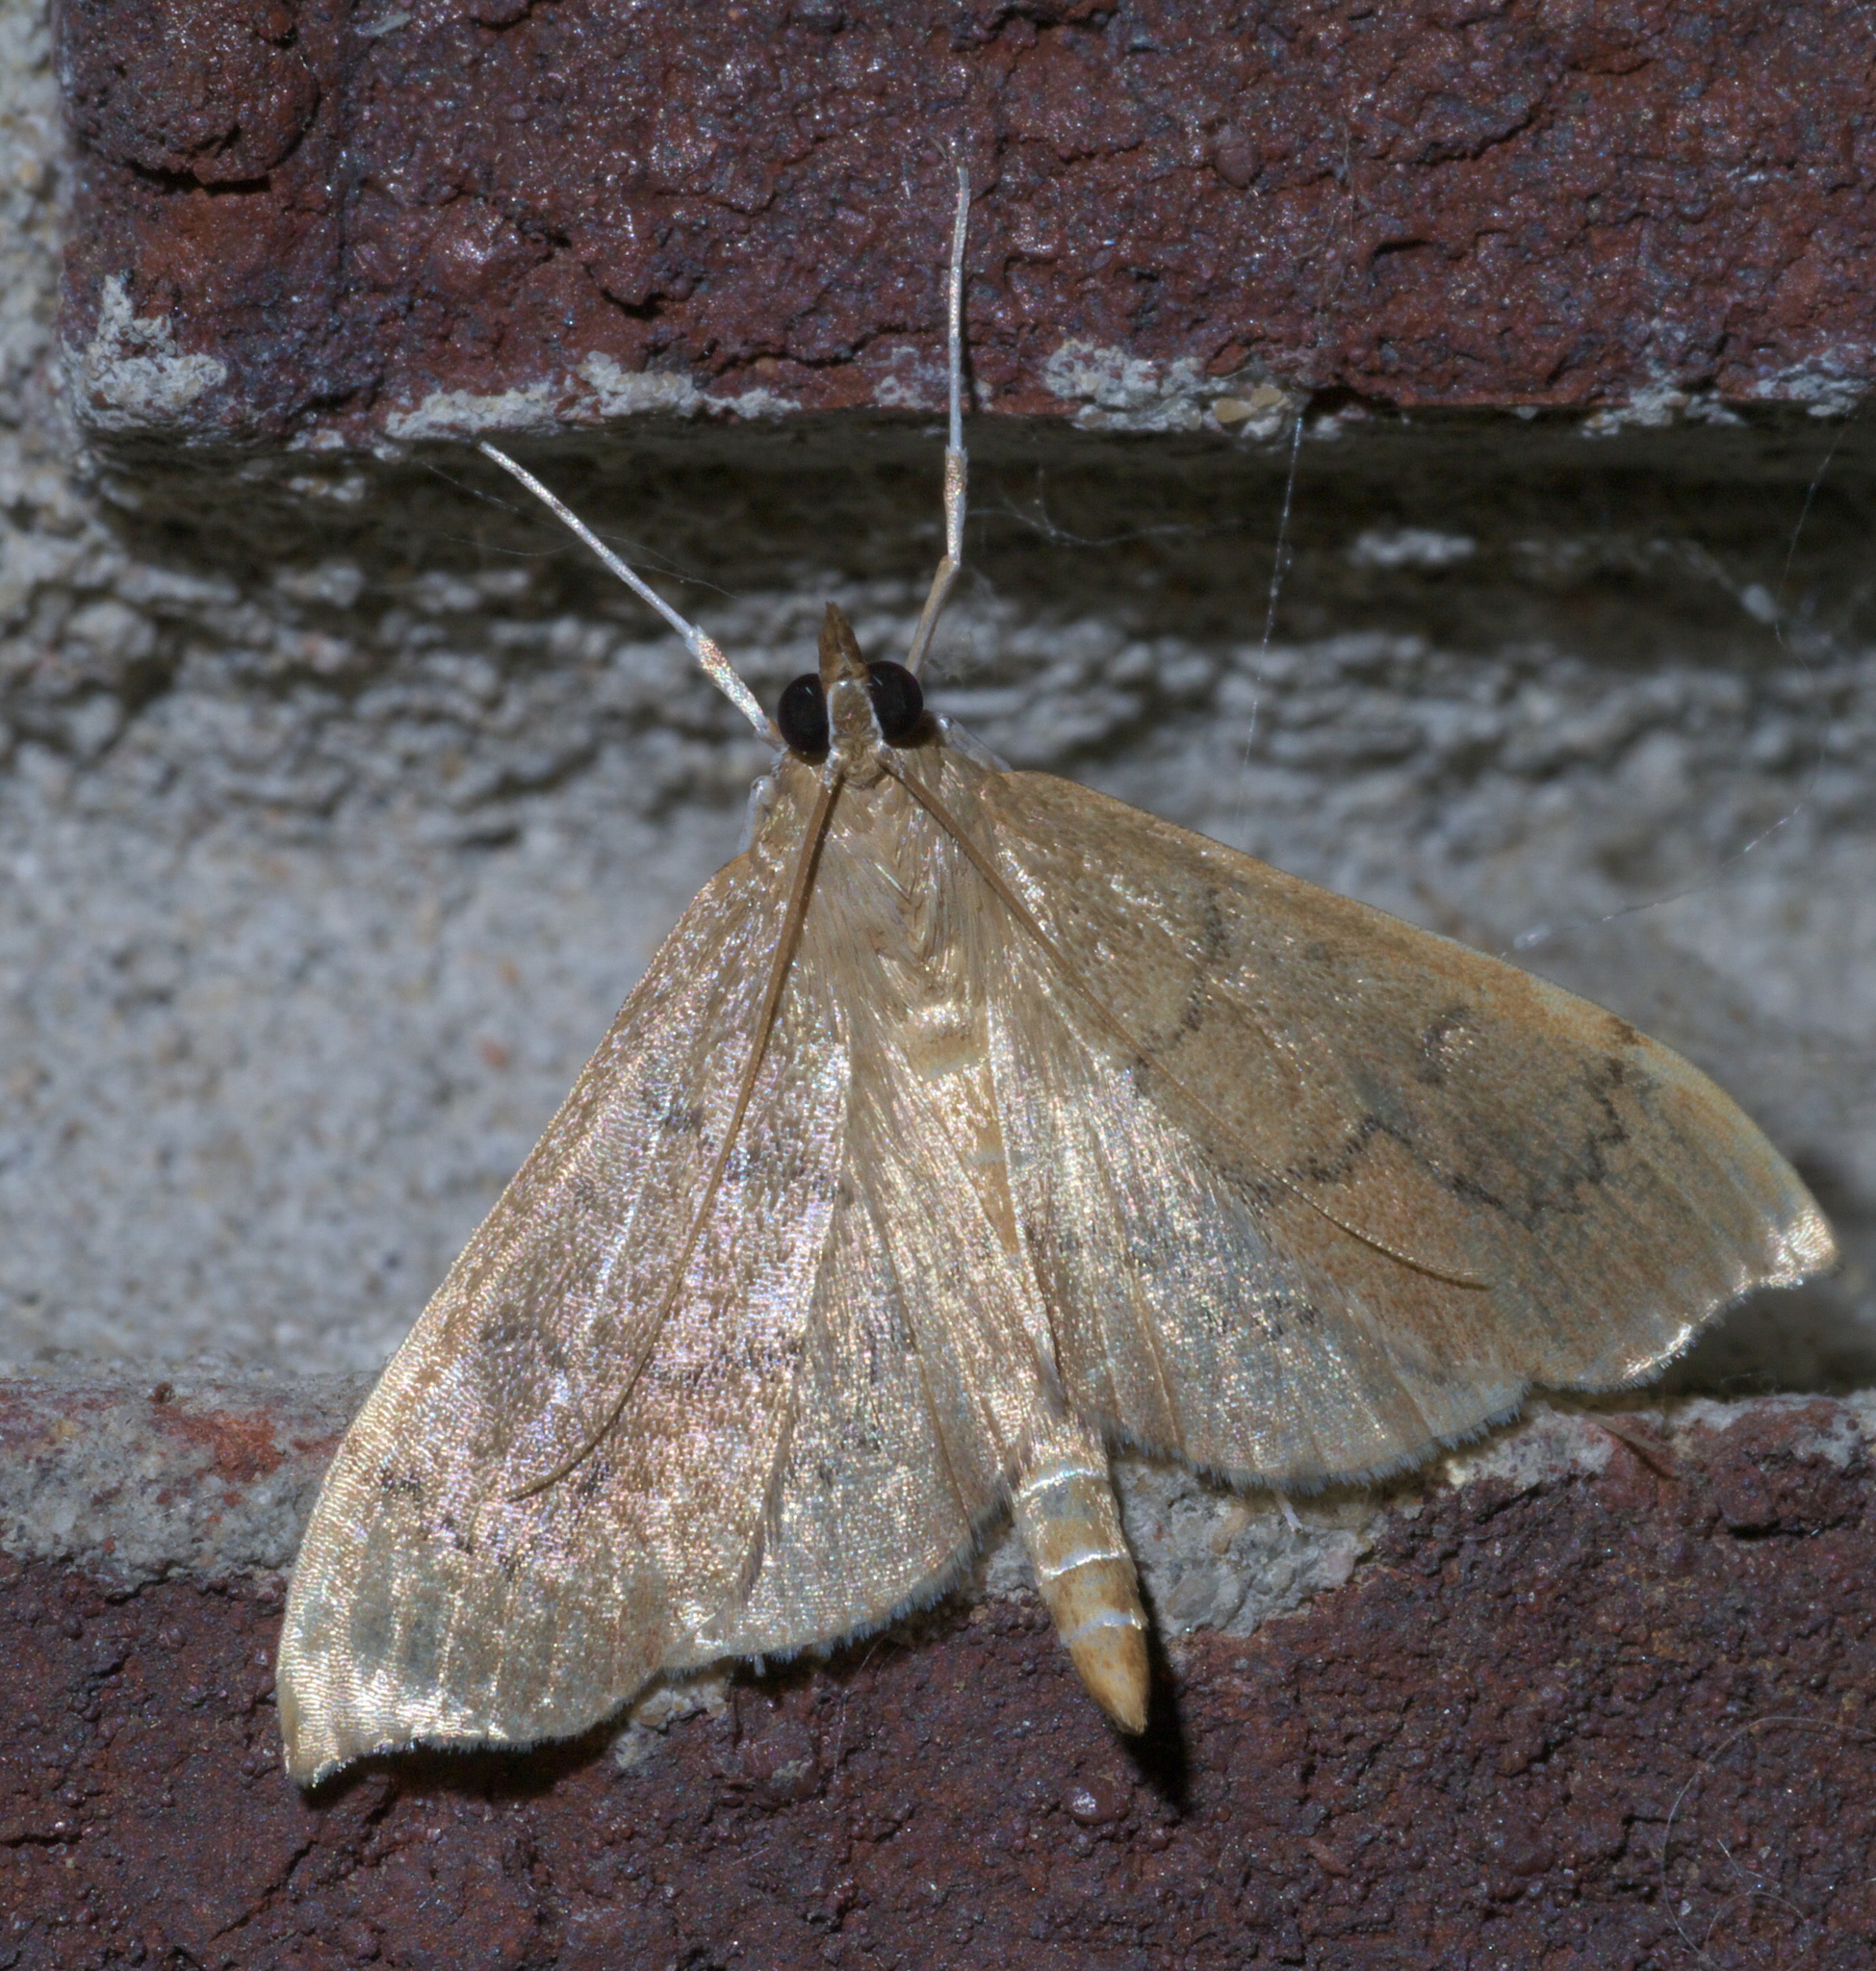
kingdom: Animalia
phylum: Arthropoda
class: Insecta
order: Lepidoptera
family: Crambidae
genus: Sericoplaga
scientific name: Sericoplaga externalis
